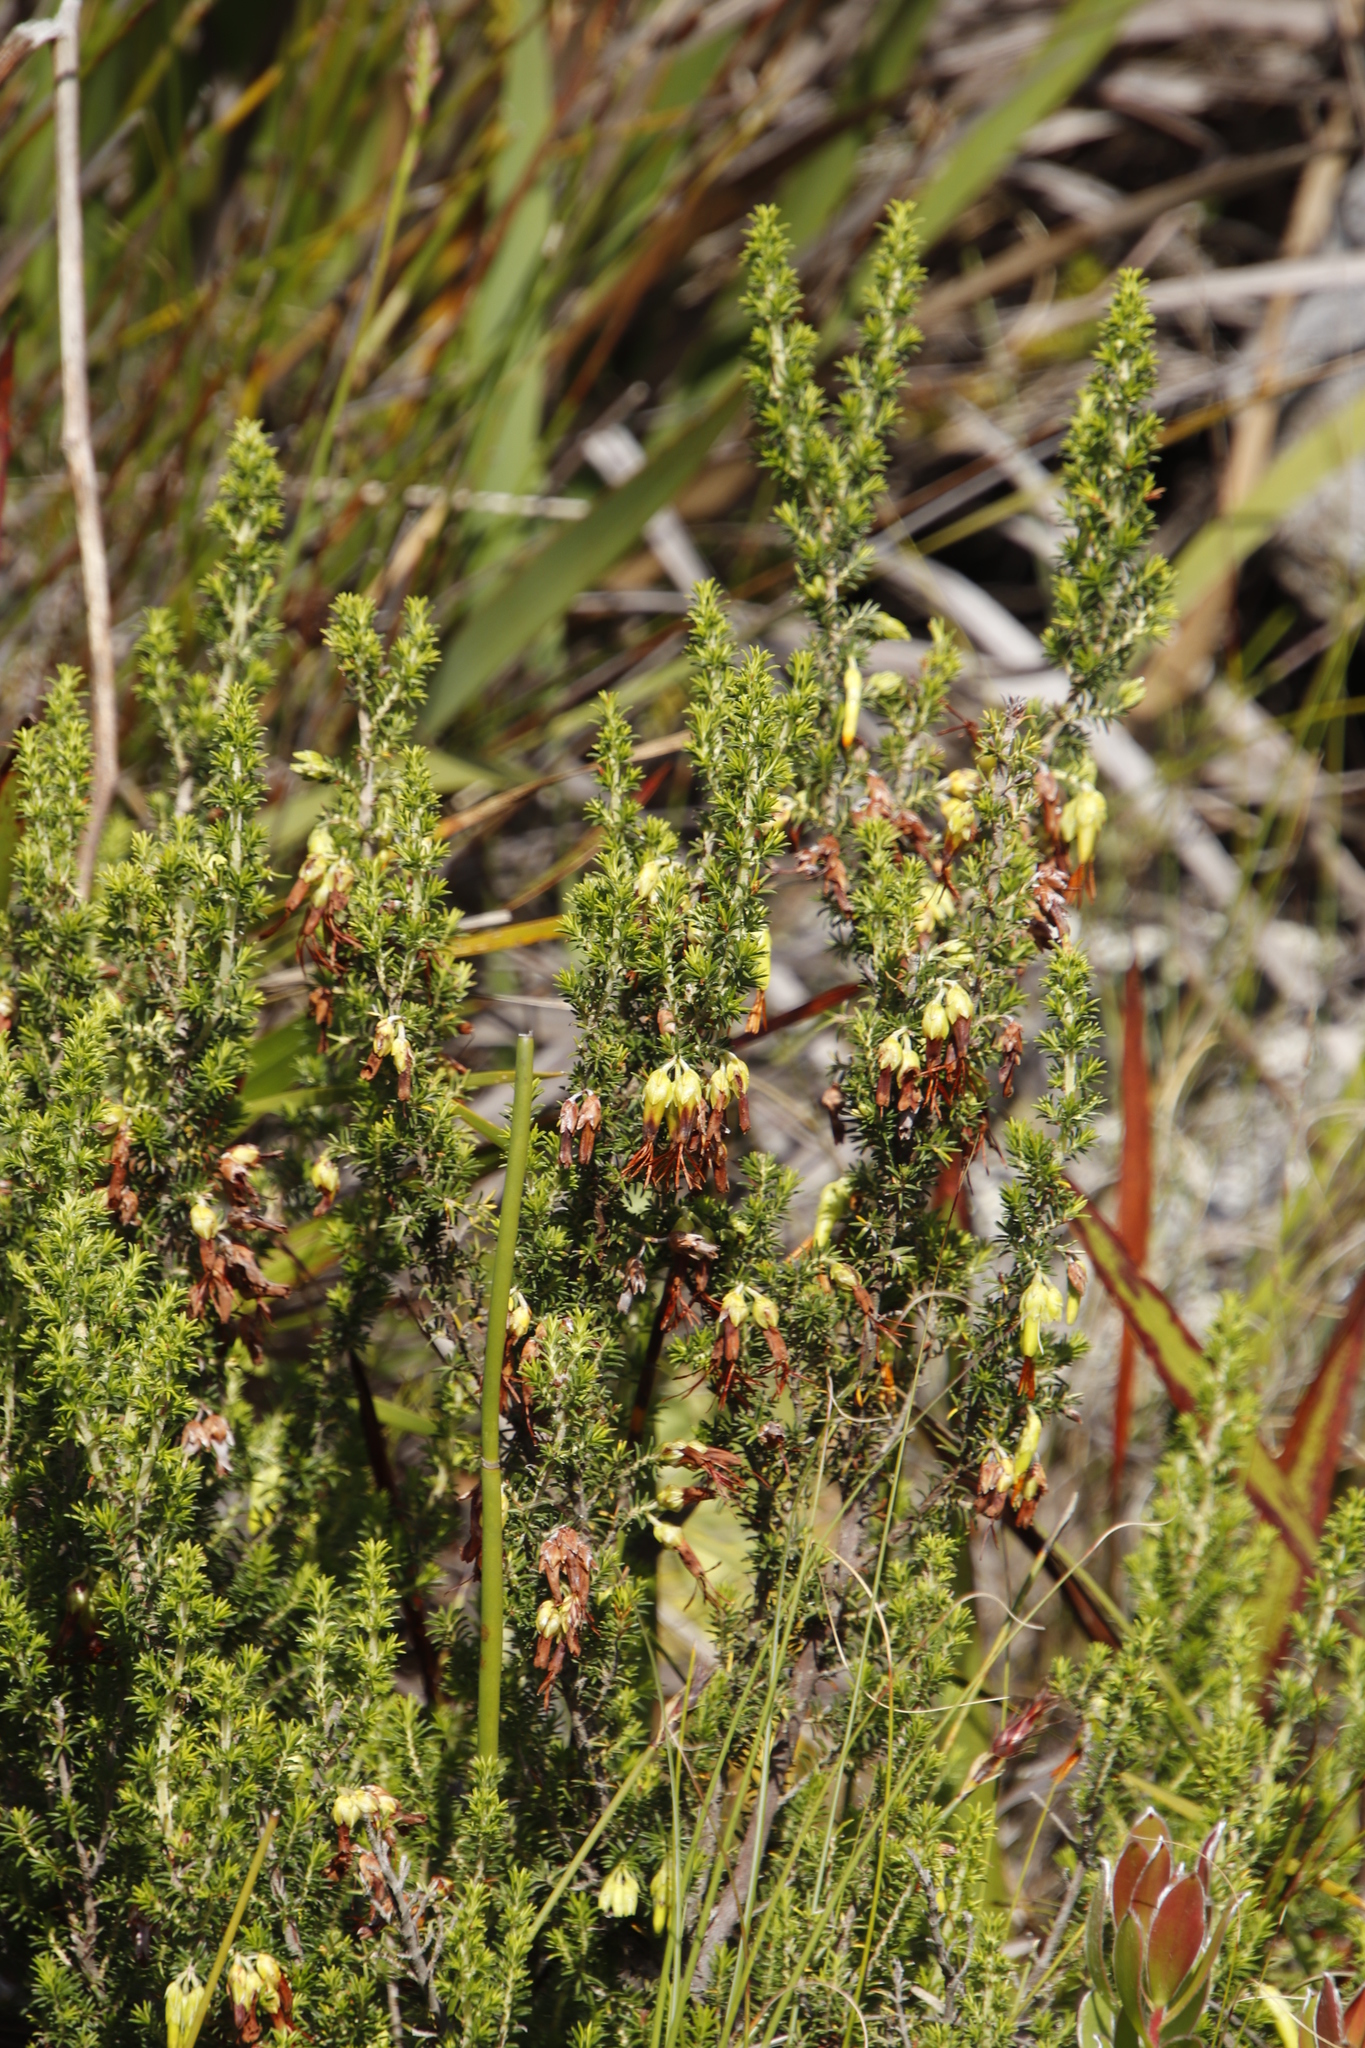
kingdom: Plantae
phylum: Tracheophyta
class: Magnoliopsida
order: Ericales
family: Ericaceae
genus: Erica
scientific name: Erica coccinea
